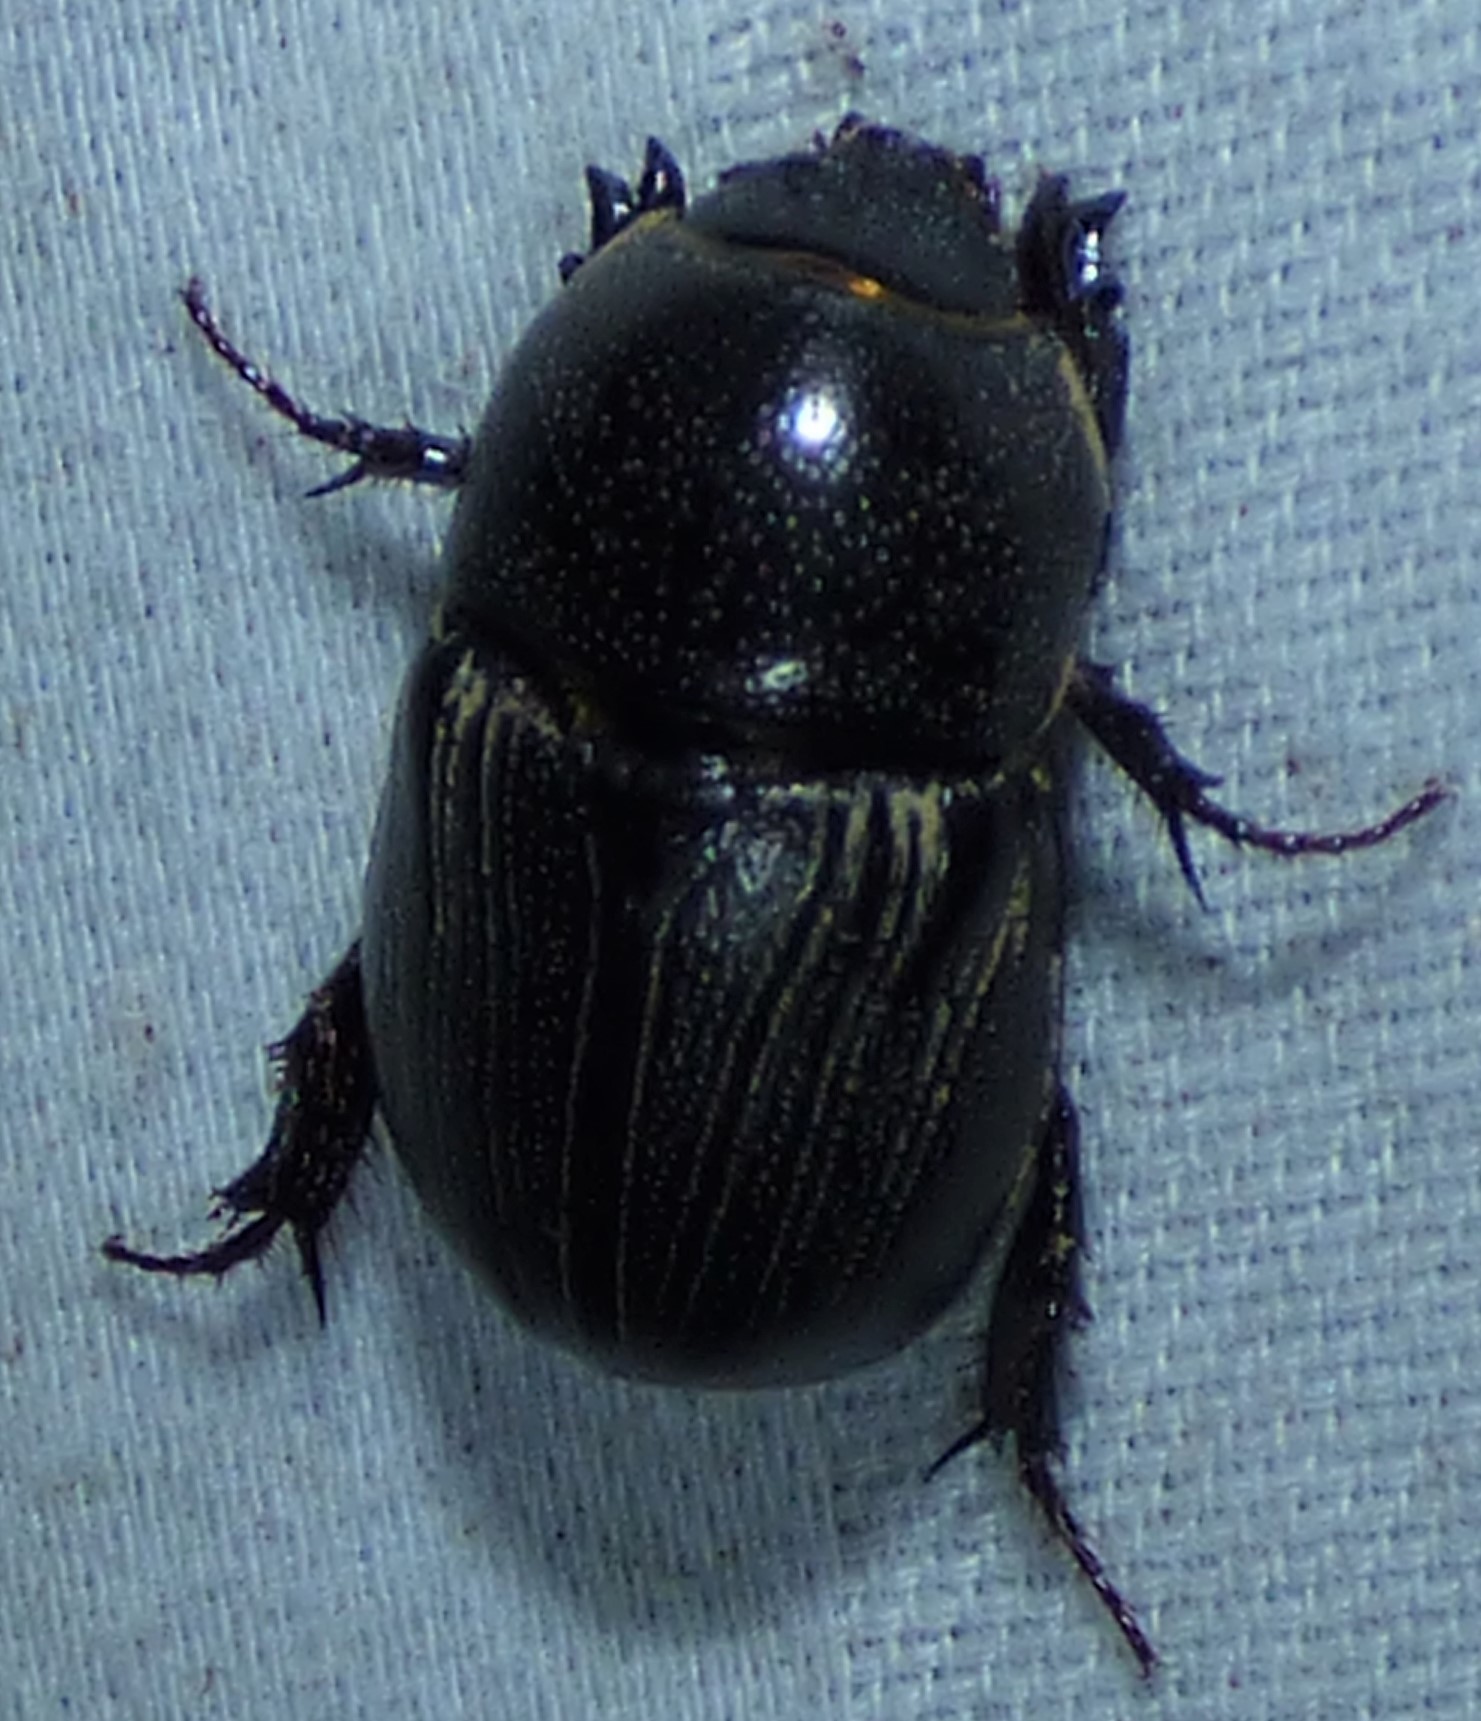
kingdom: Animalia
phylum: Arthropoda
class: Insecta
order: Coleoptera
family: Scarabaeidae
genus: Euetheola
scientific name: Euetheola humilis
